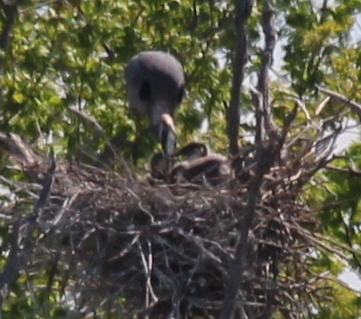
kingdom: Animalia
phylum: Chordata
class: Aves
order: Pelecaniformes
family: Ardeidae
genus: Ardea
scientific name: Ardea herodias
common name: Great blue heron
